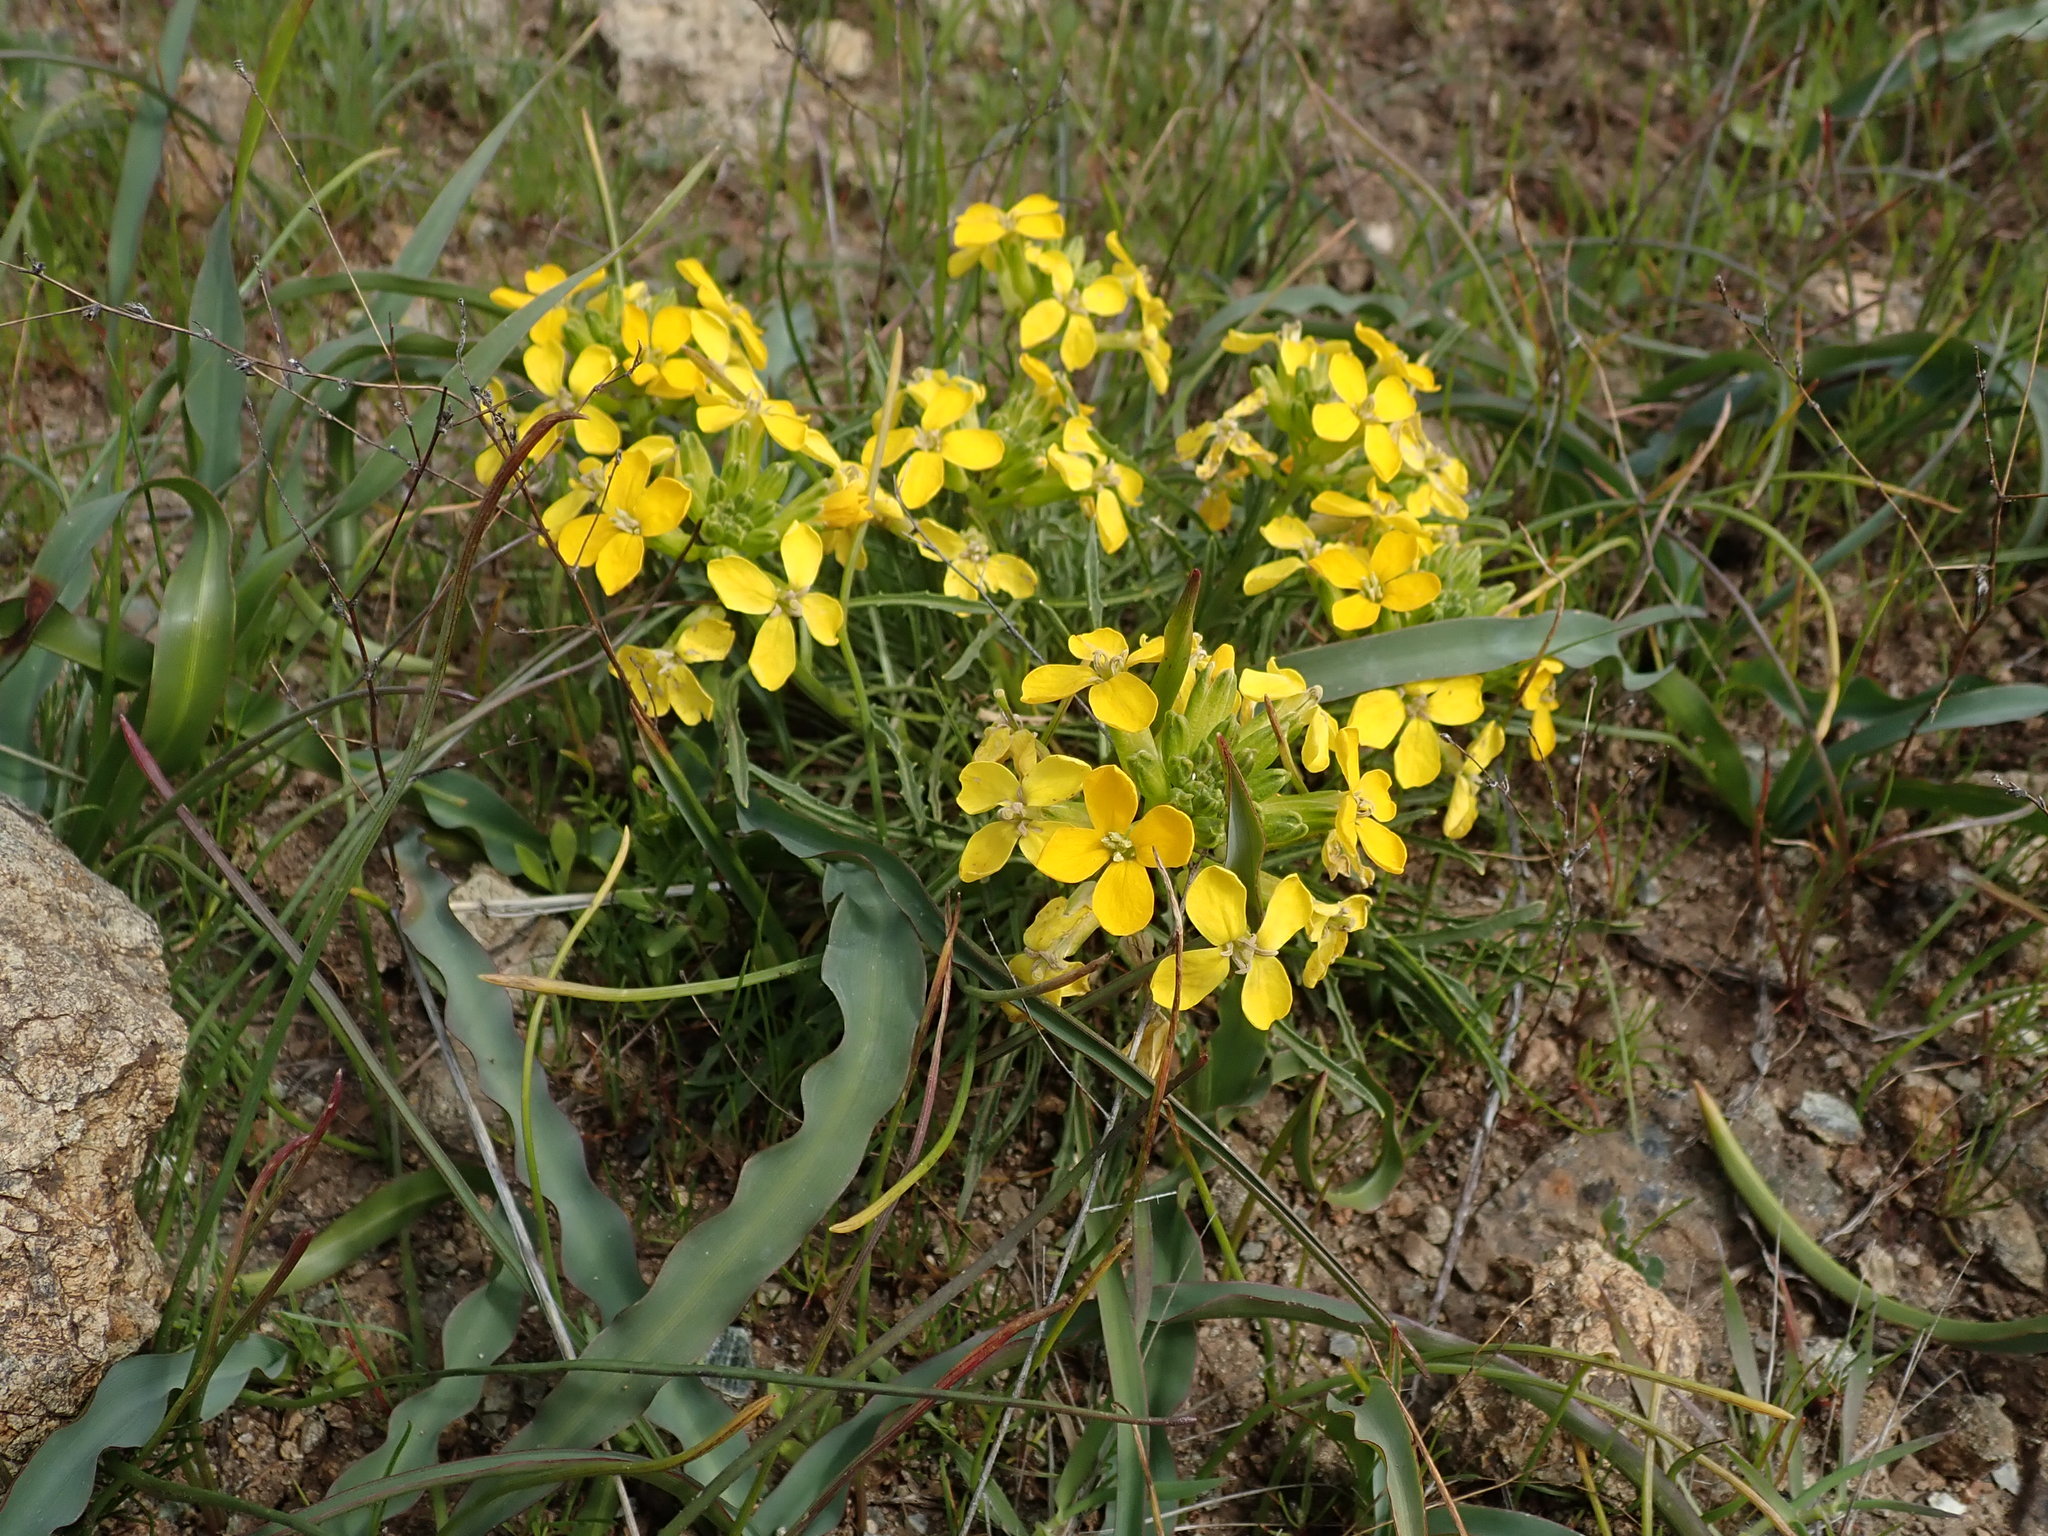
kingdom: Plantae
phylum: Tracheophyta
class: Magnoliopsida
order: Brassicales
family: Brassicaceae
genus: Erysimum
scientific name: Erysimum franciscanum
